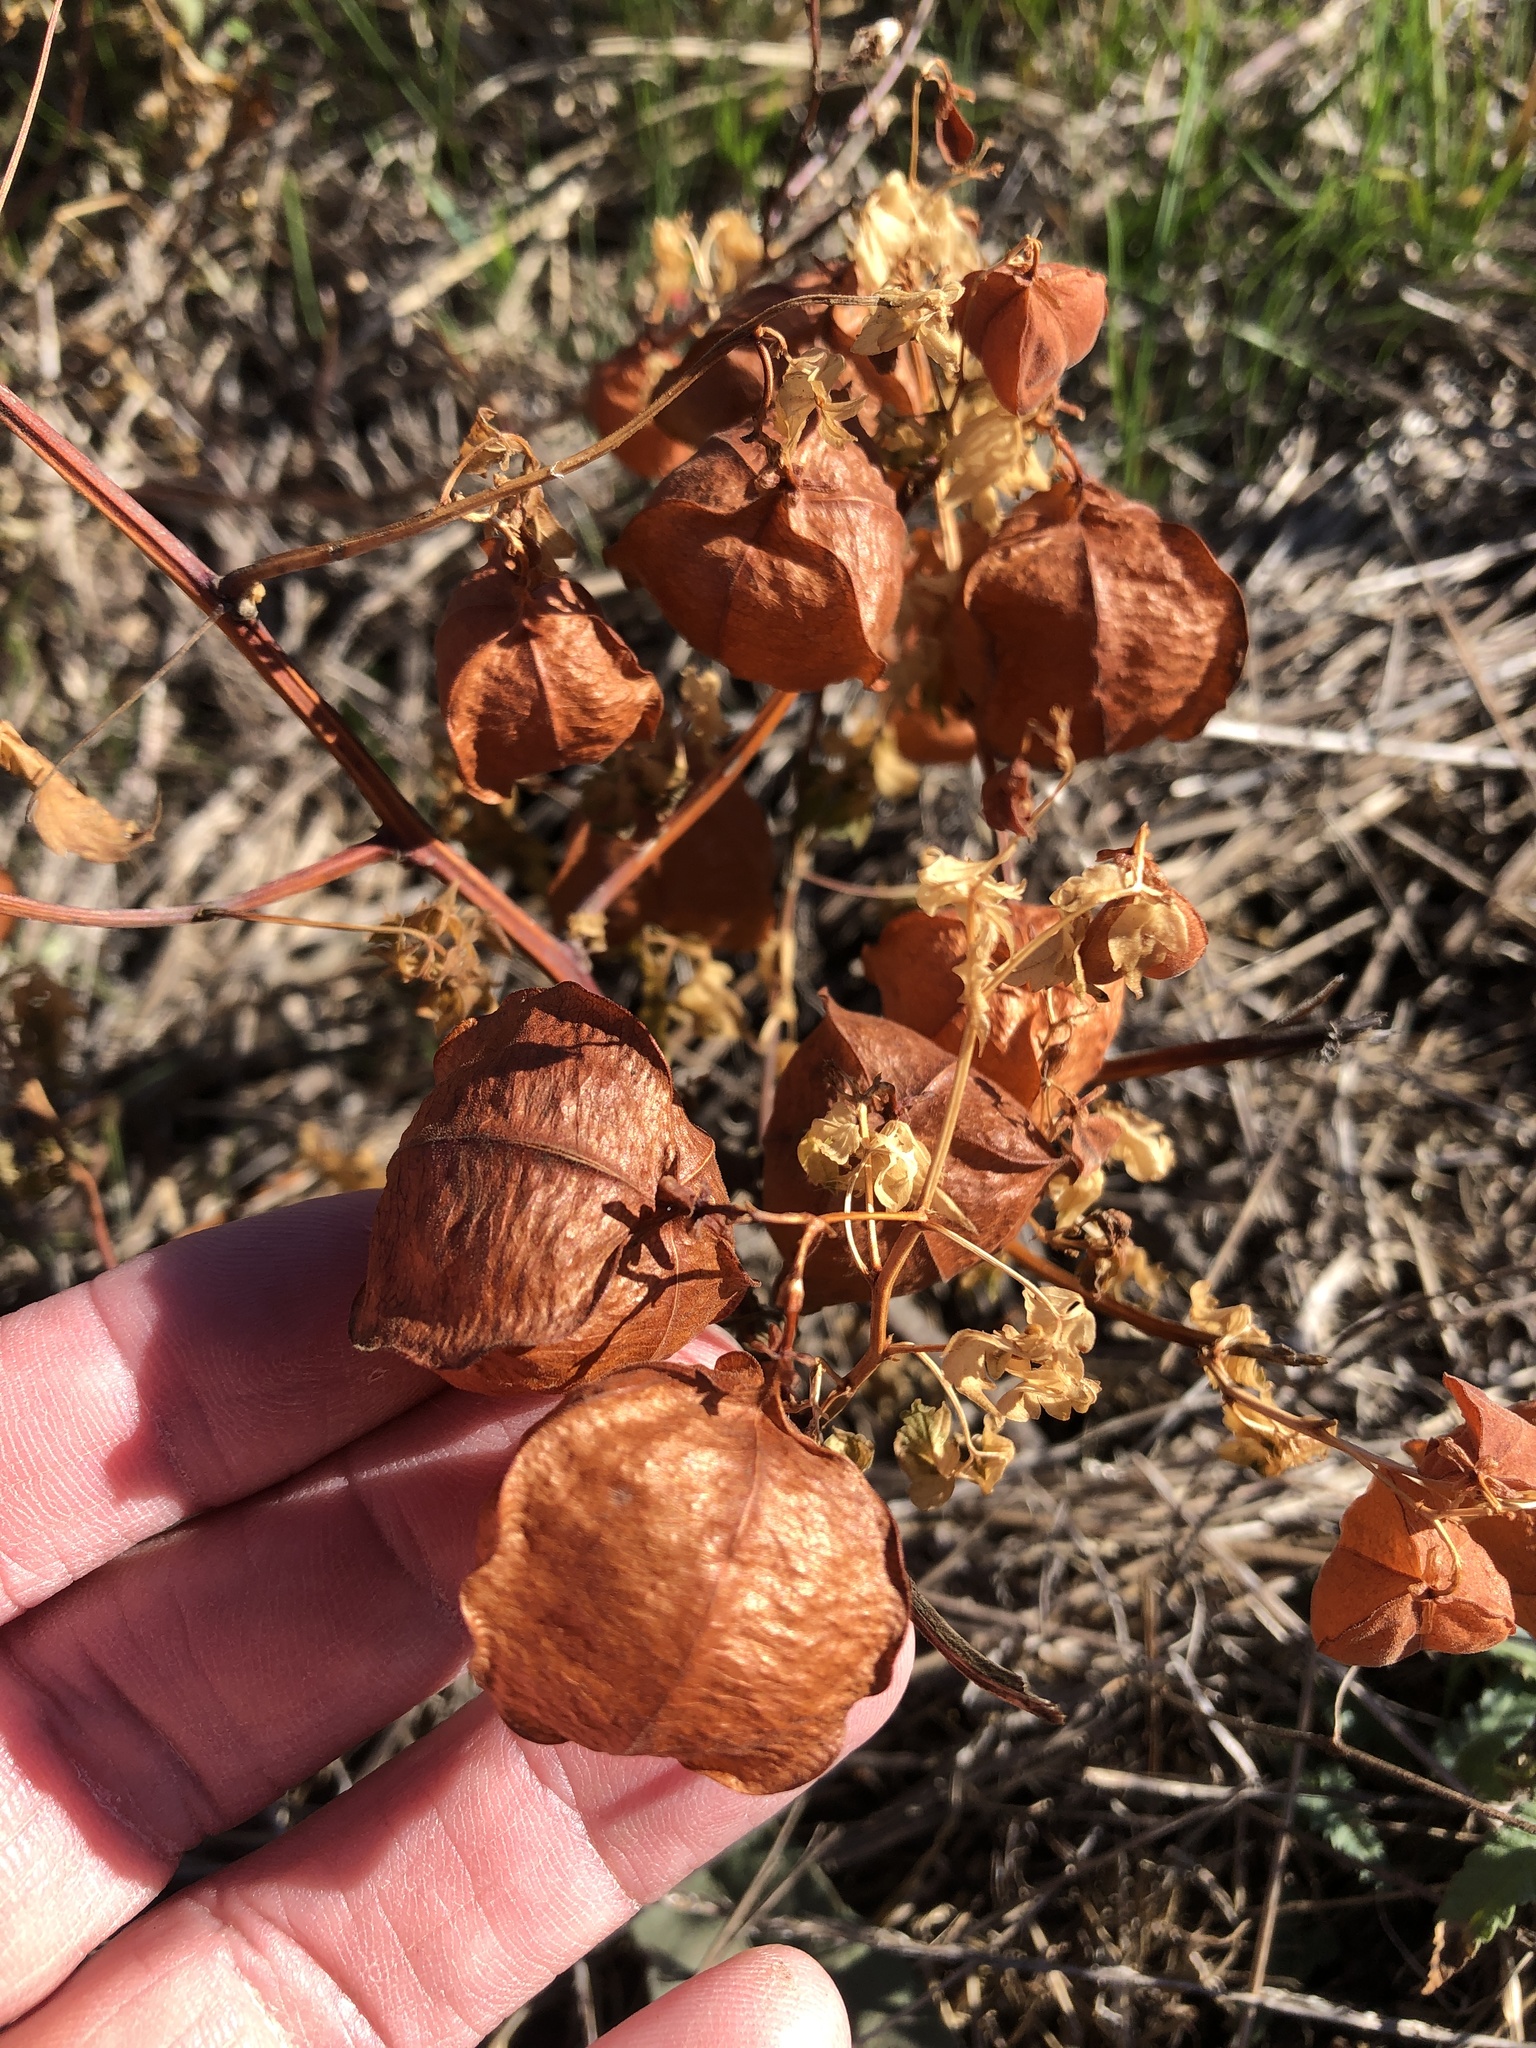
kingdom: Plantae
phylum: Tracheophyta
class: Magnoliopsida
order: Sapindales
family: Sapindaceae
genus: Cardiospermum
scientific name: Cardiospermum halicacabum
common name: Balloon vine
